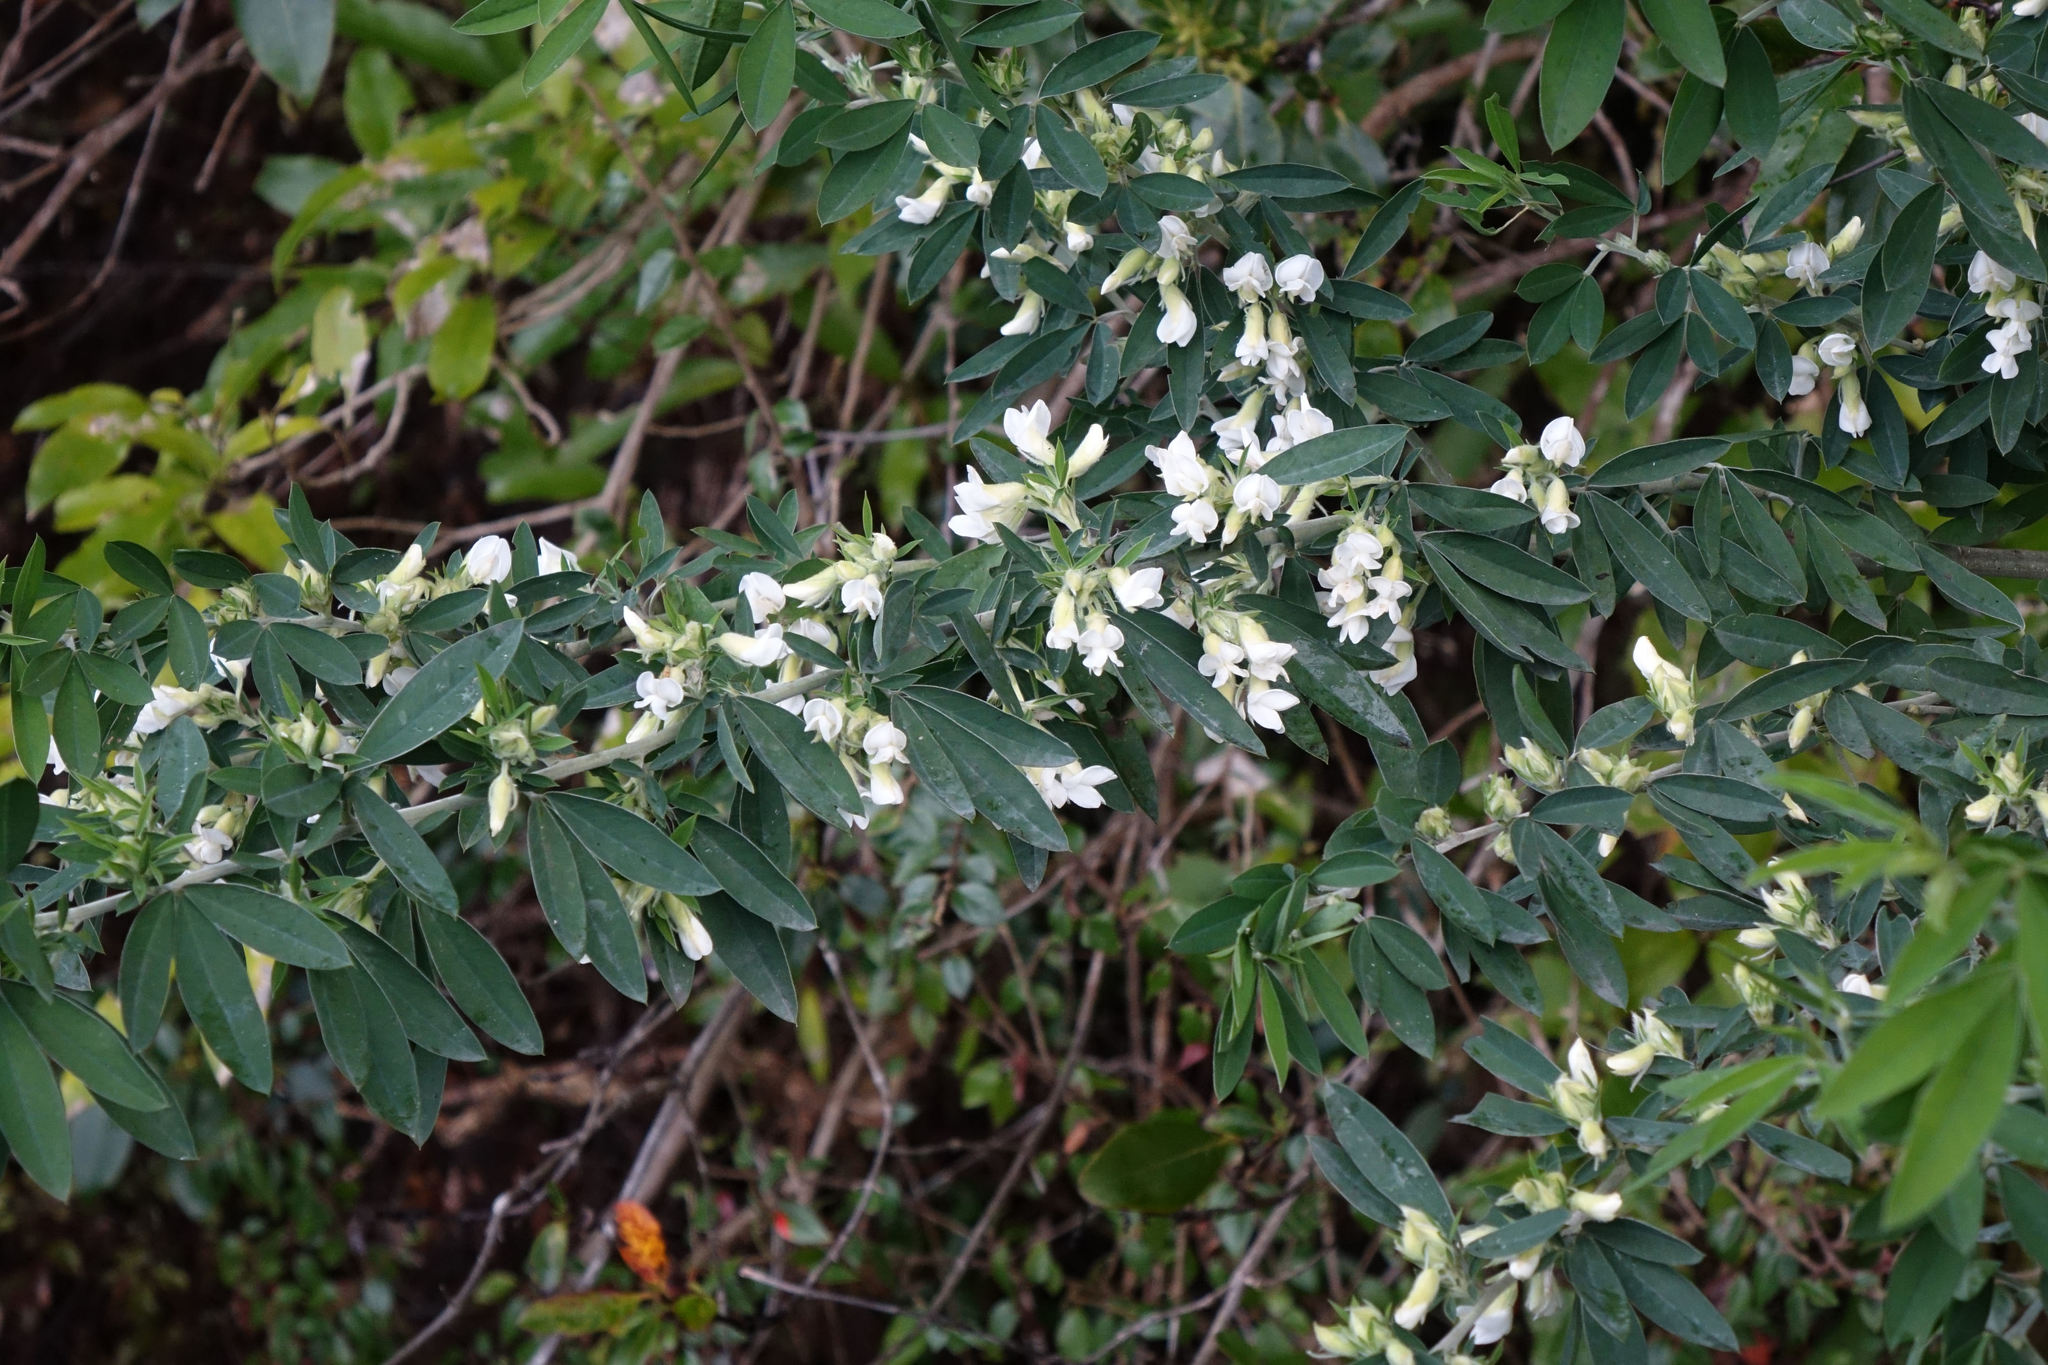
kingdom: Plantae
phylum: Tracheophyta
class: Magnoliopsida
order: Fabales
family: Fabaceae
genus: Chamaecytisus
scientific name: Chamaecytisus prolifer
